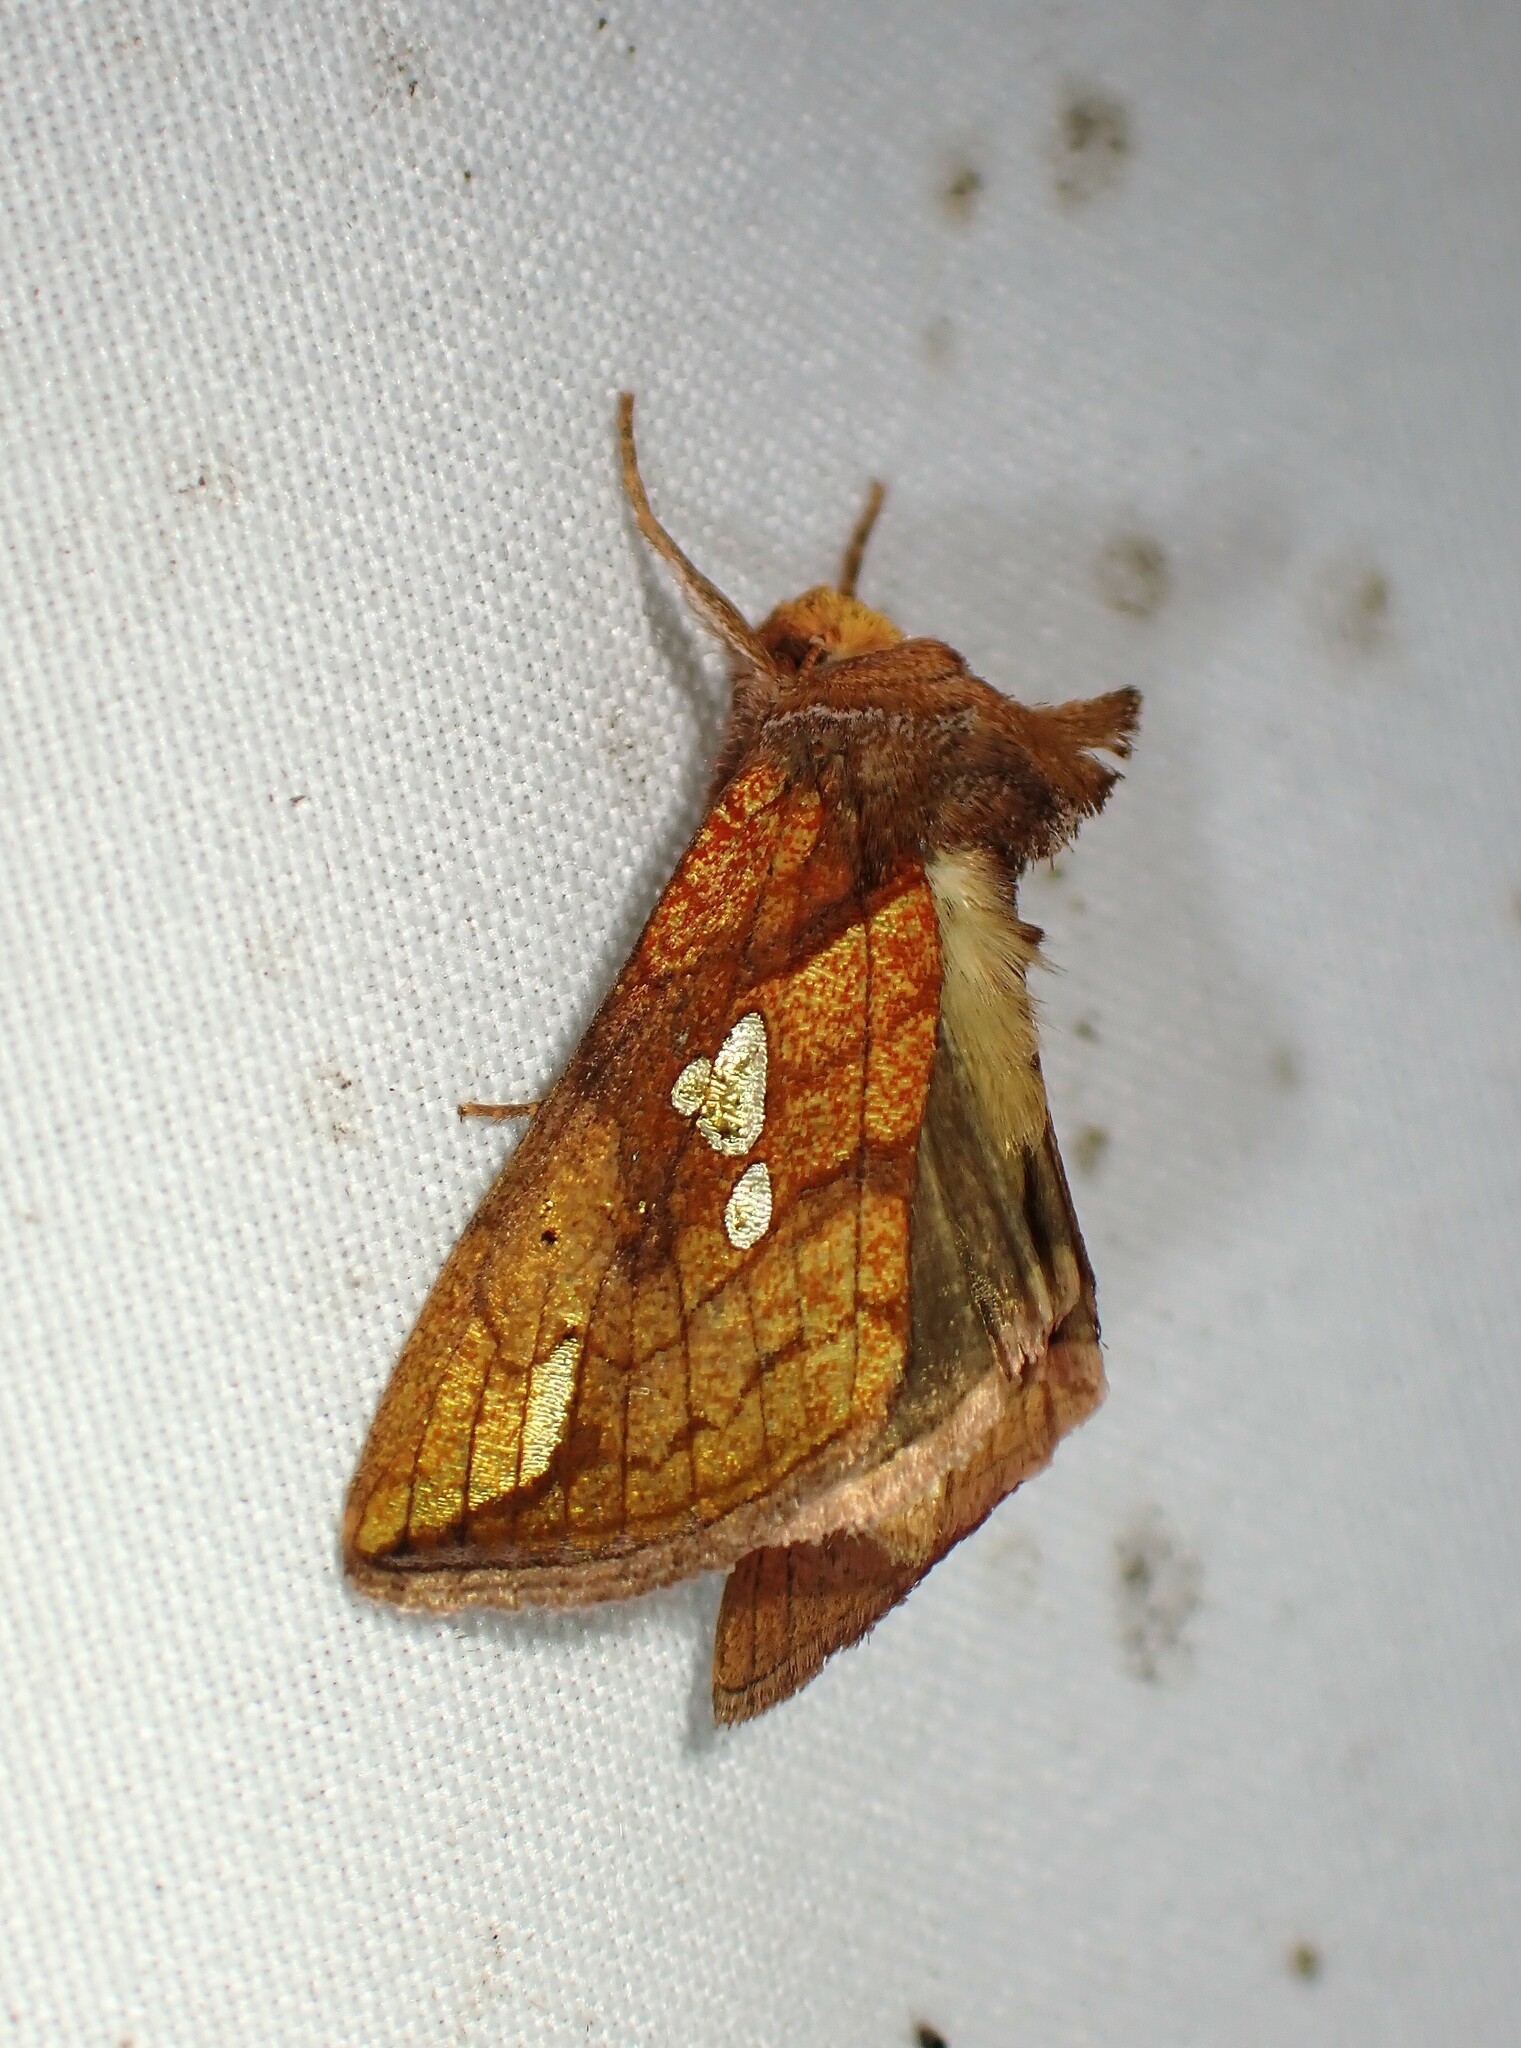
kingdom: Animalia
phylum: Arthropoda
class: Insecta
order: Lepidoptera
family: Noctuidae
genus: Plusia
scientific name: Plusia putnami
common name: Lempke's gold spot
